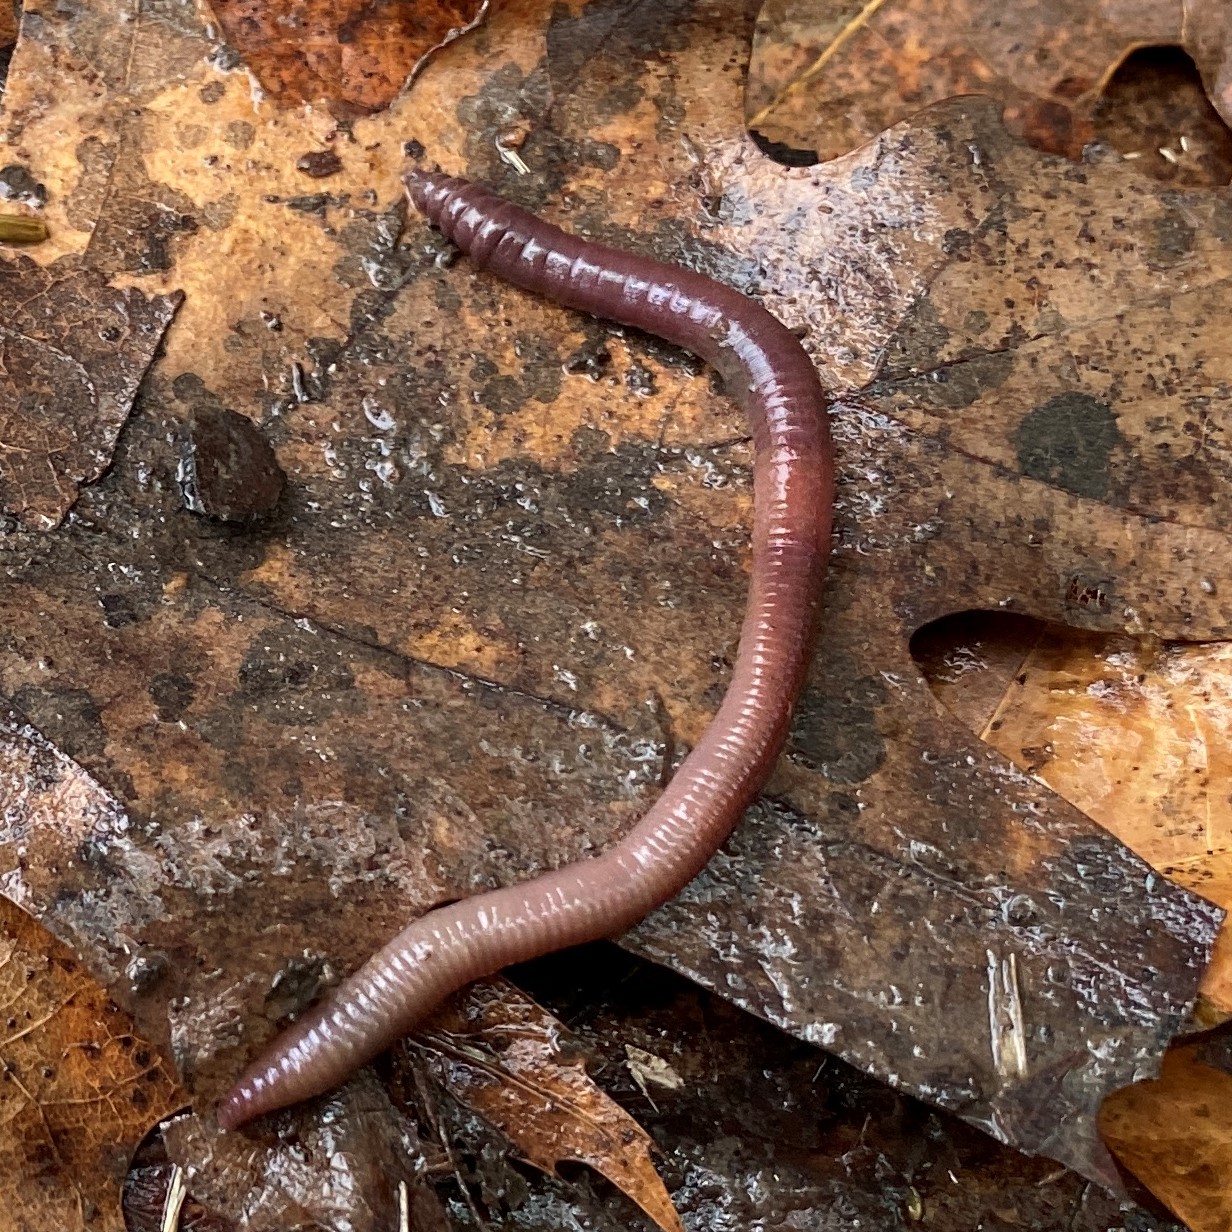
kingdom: Animalia
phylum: Annelida
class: Clitellata
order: Crassiclitellata
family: Lumbricidae
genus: Lumbricus
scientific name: Lumbricus terrestris
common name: Common earthworm
